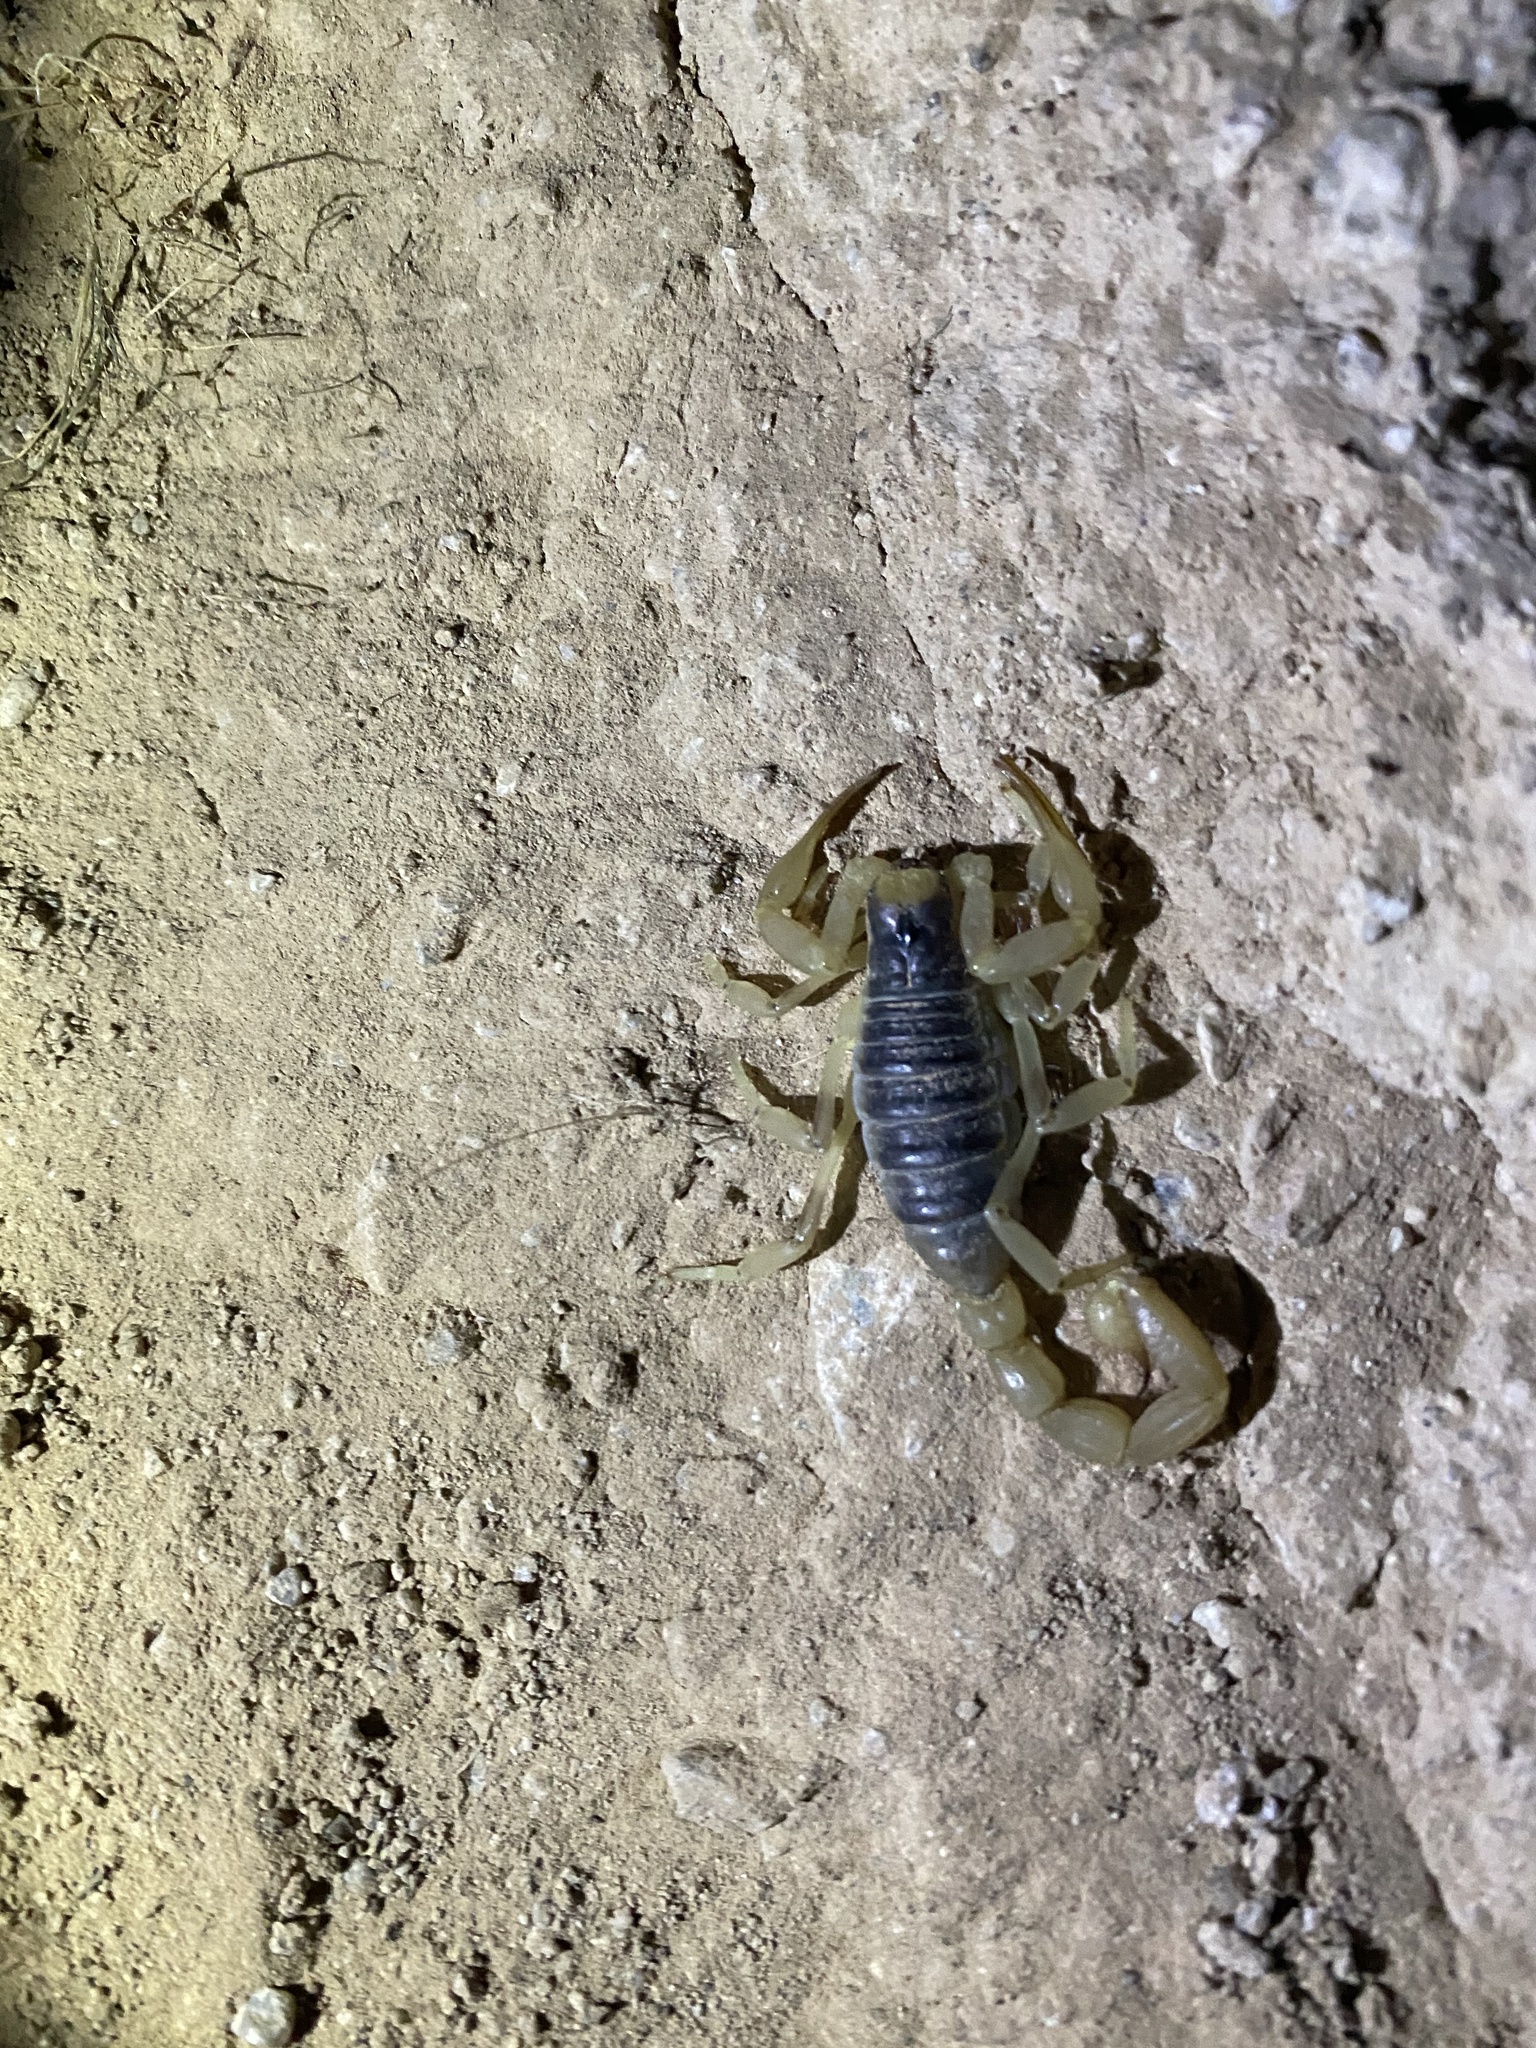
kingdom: Animalia
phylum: Arthropoda
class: Arachnida
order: Scorpiones
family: Hadruridae
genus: Hadrurus
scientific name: Hadrurus arizonensis
